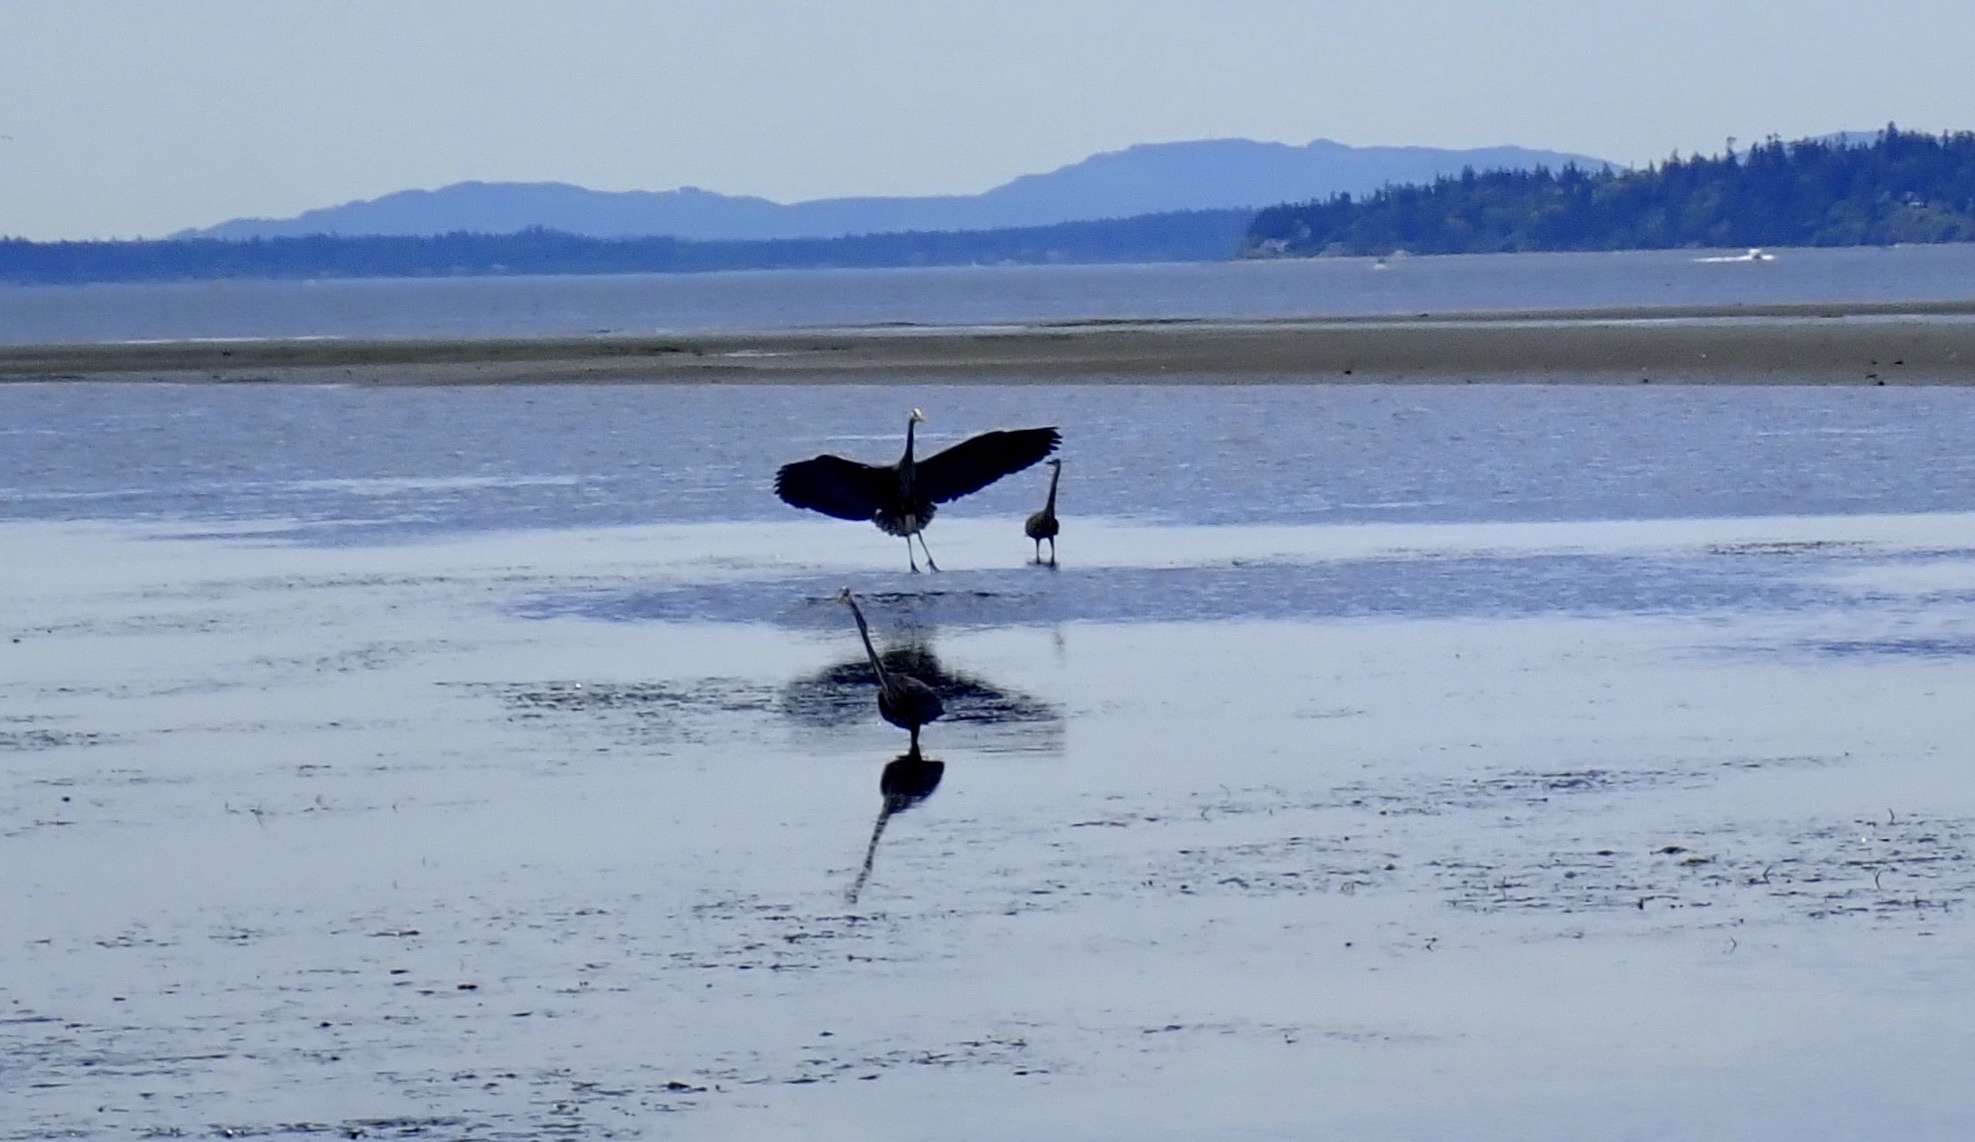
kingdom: Animalia
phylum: Chordata
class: Aves
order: Pelecaniformes
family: Ardeidae
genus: Ardea
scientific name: Ardea herodias
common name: Great blue heron
